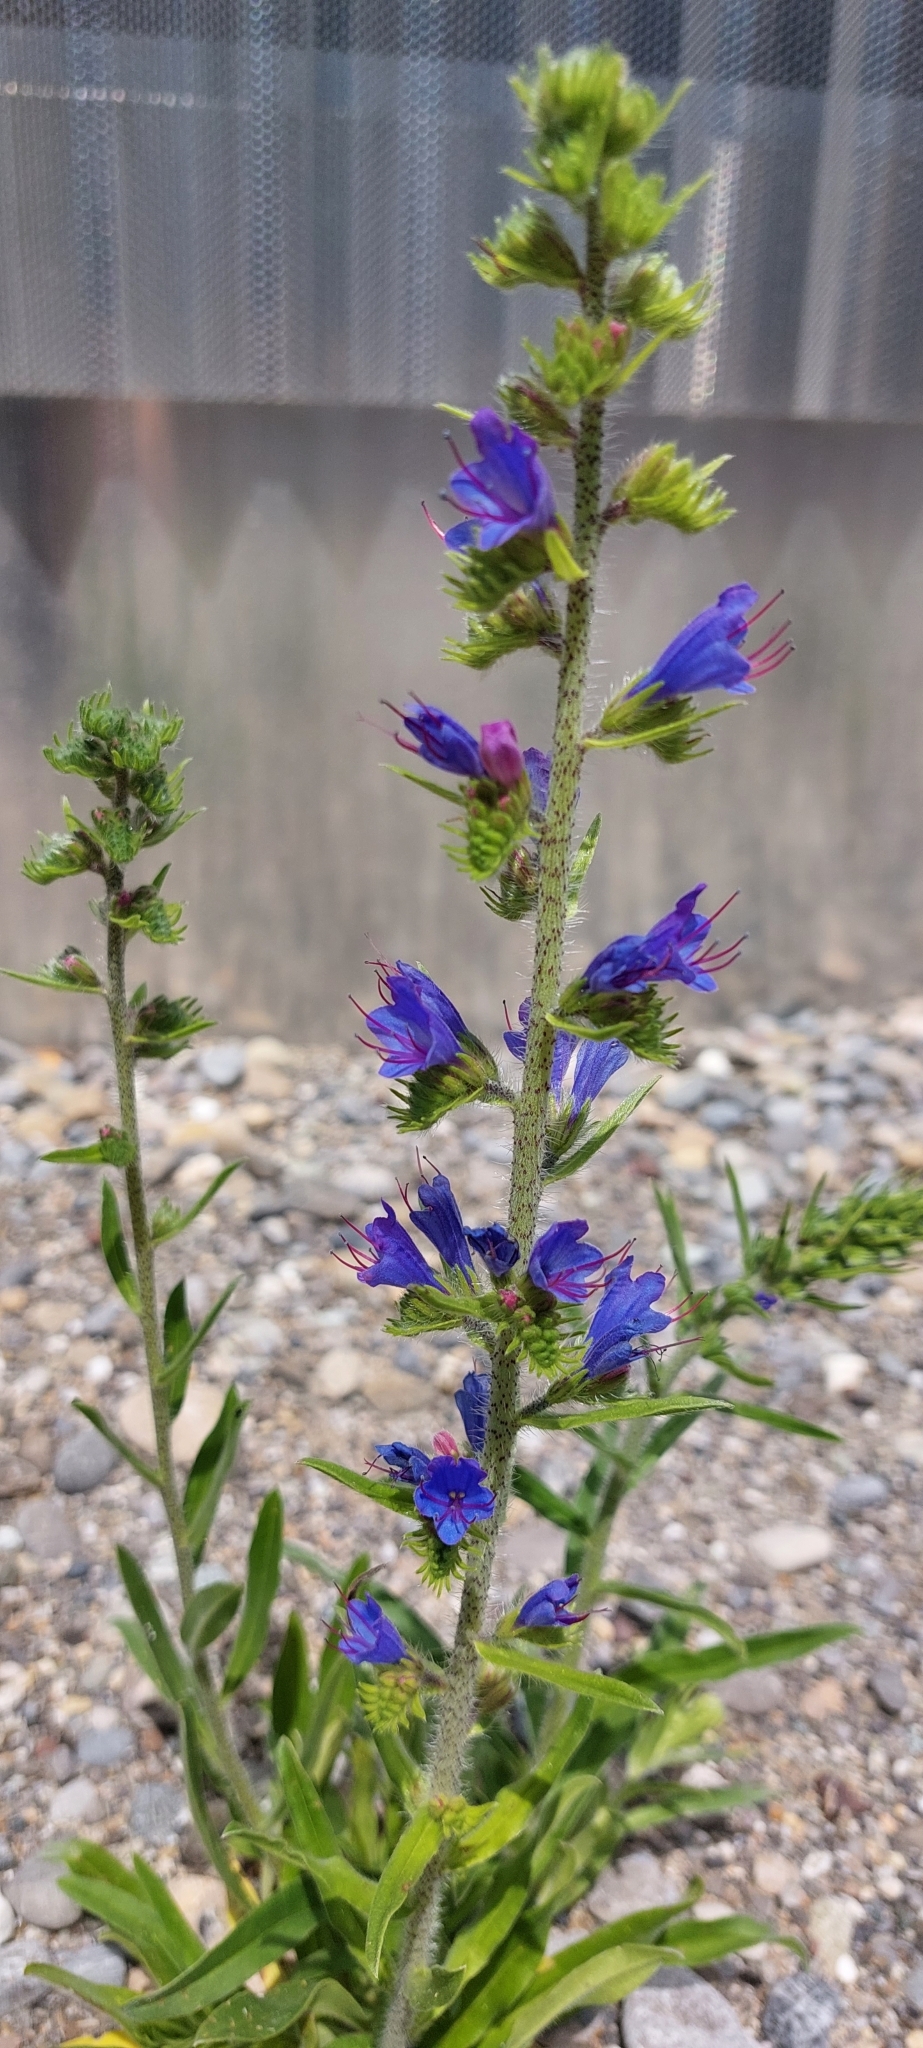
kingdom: Plantae
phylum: Tracheophyta
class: Magnoliopsida
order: Boraginales
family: Boraginaceae
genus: Echium
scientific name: Echium vulgare
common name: Common viper's bugloss
